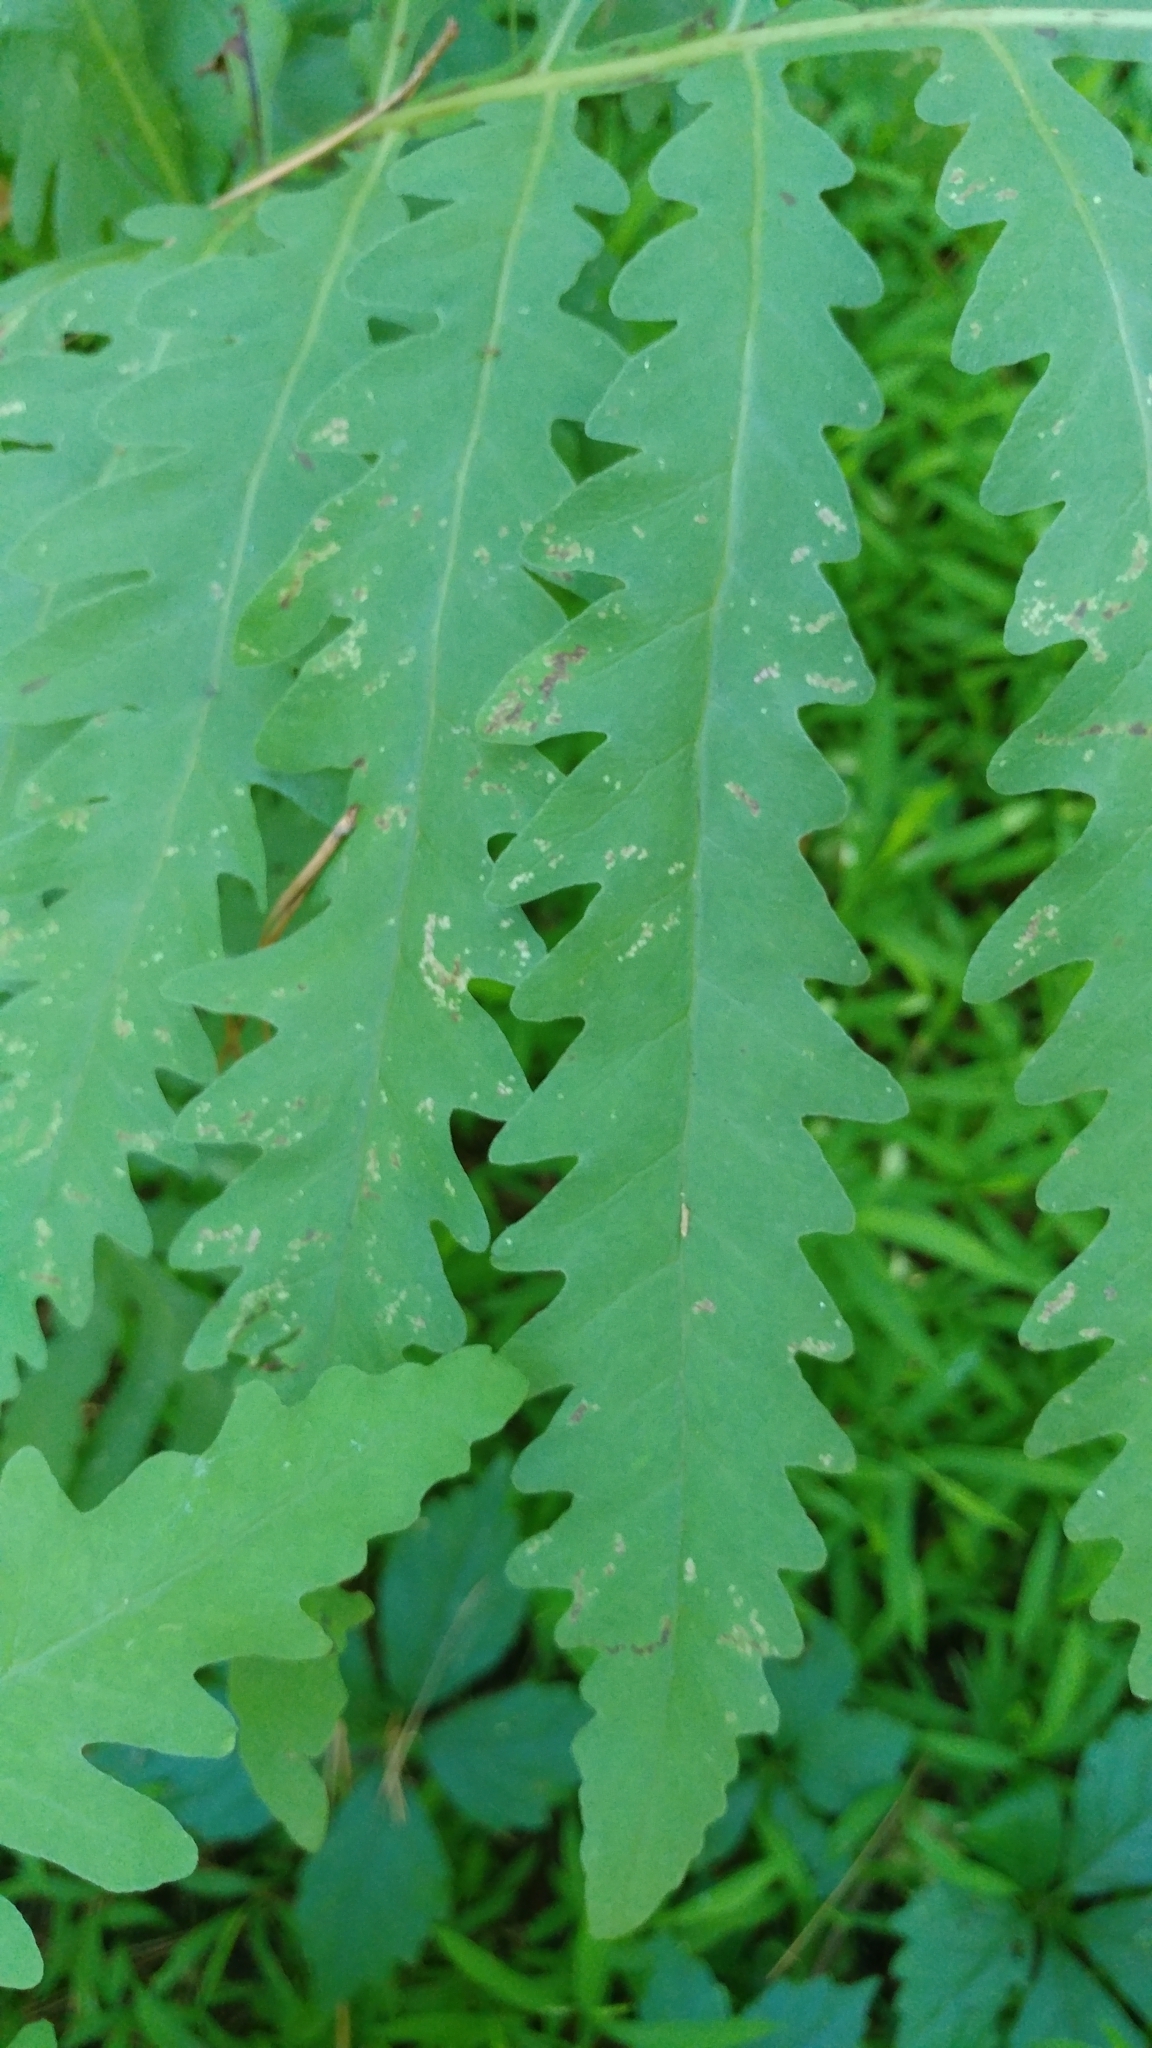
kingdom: Plantae
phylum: Tracheophyta
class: Polypodiopsida
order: Polypodiales
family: Onocleaceae
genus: Onoclea
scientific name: Onoclea sensibilis
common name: Sensitive fern
